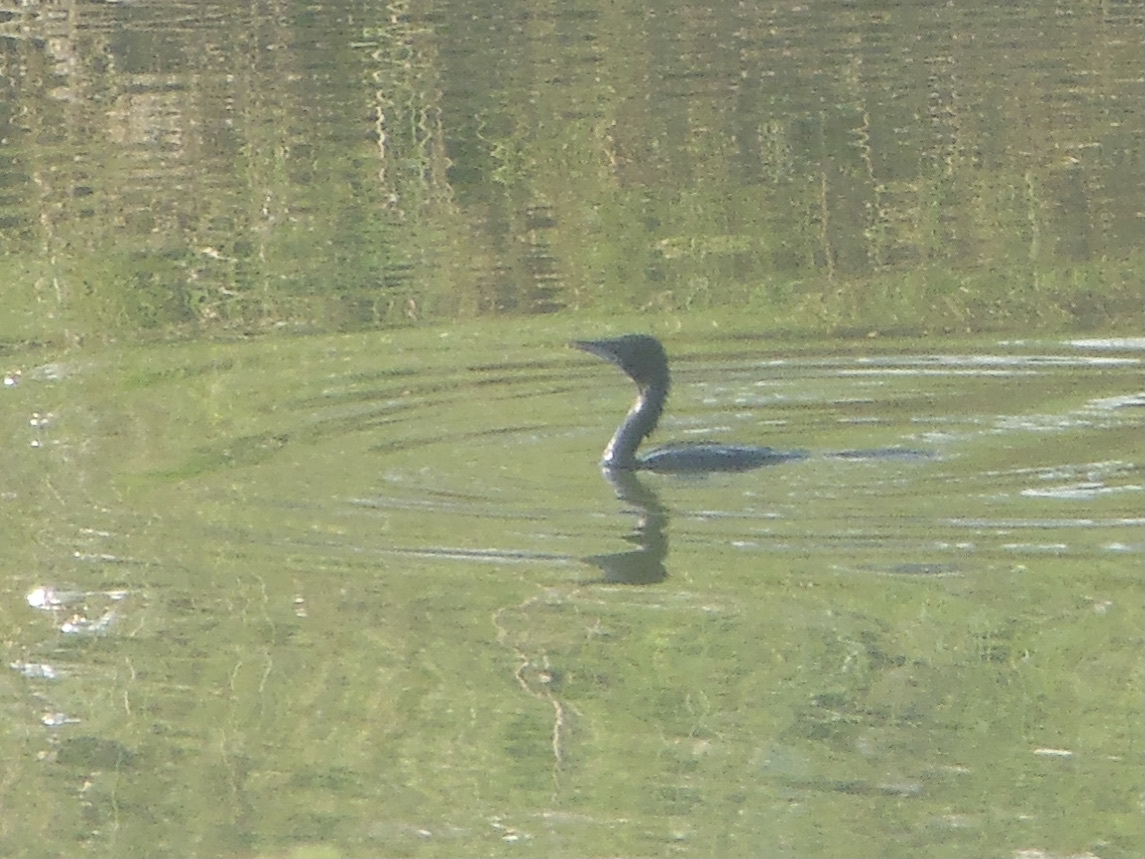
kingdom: Animalia
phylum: Chordata
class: Aves
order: Suliformes
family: Phalacrocoracidae
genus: Microcarbo
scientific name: Microcarbo niger
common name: Little cormorant
